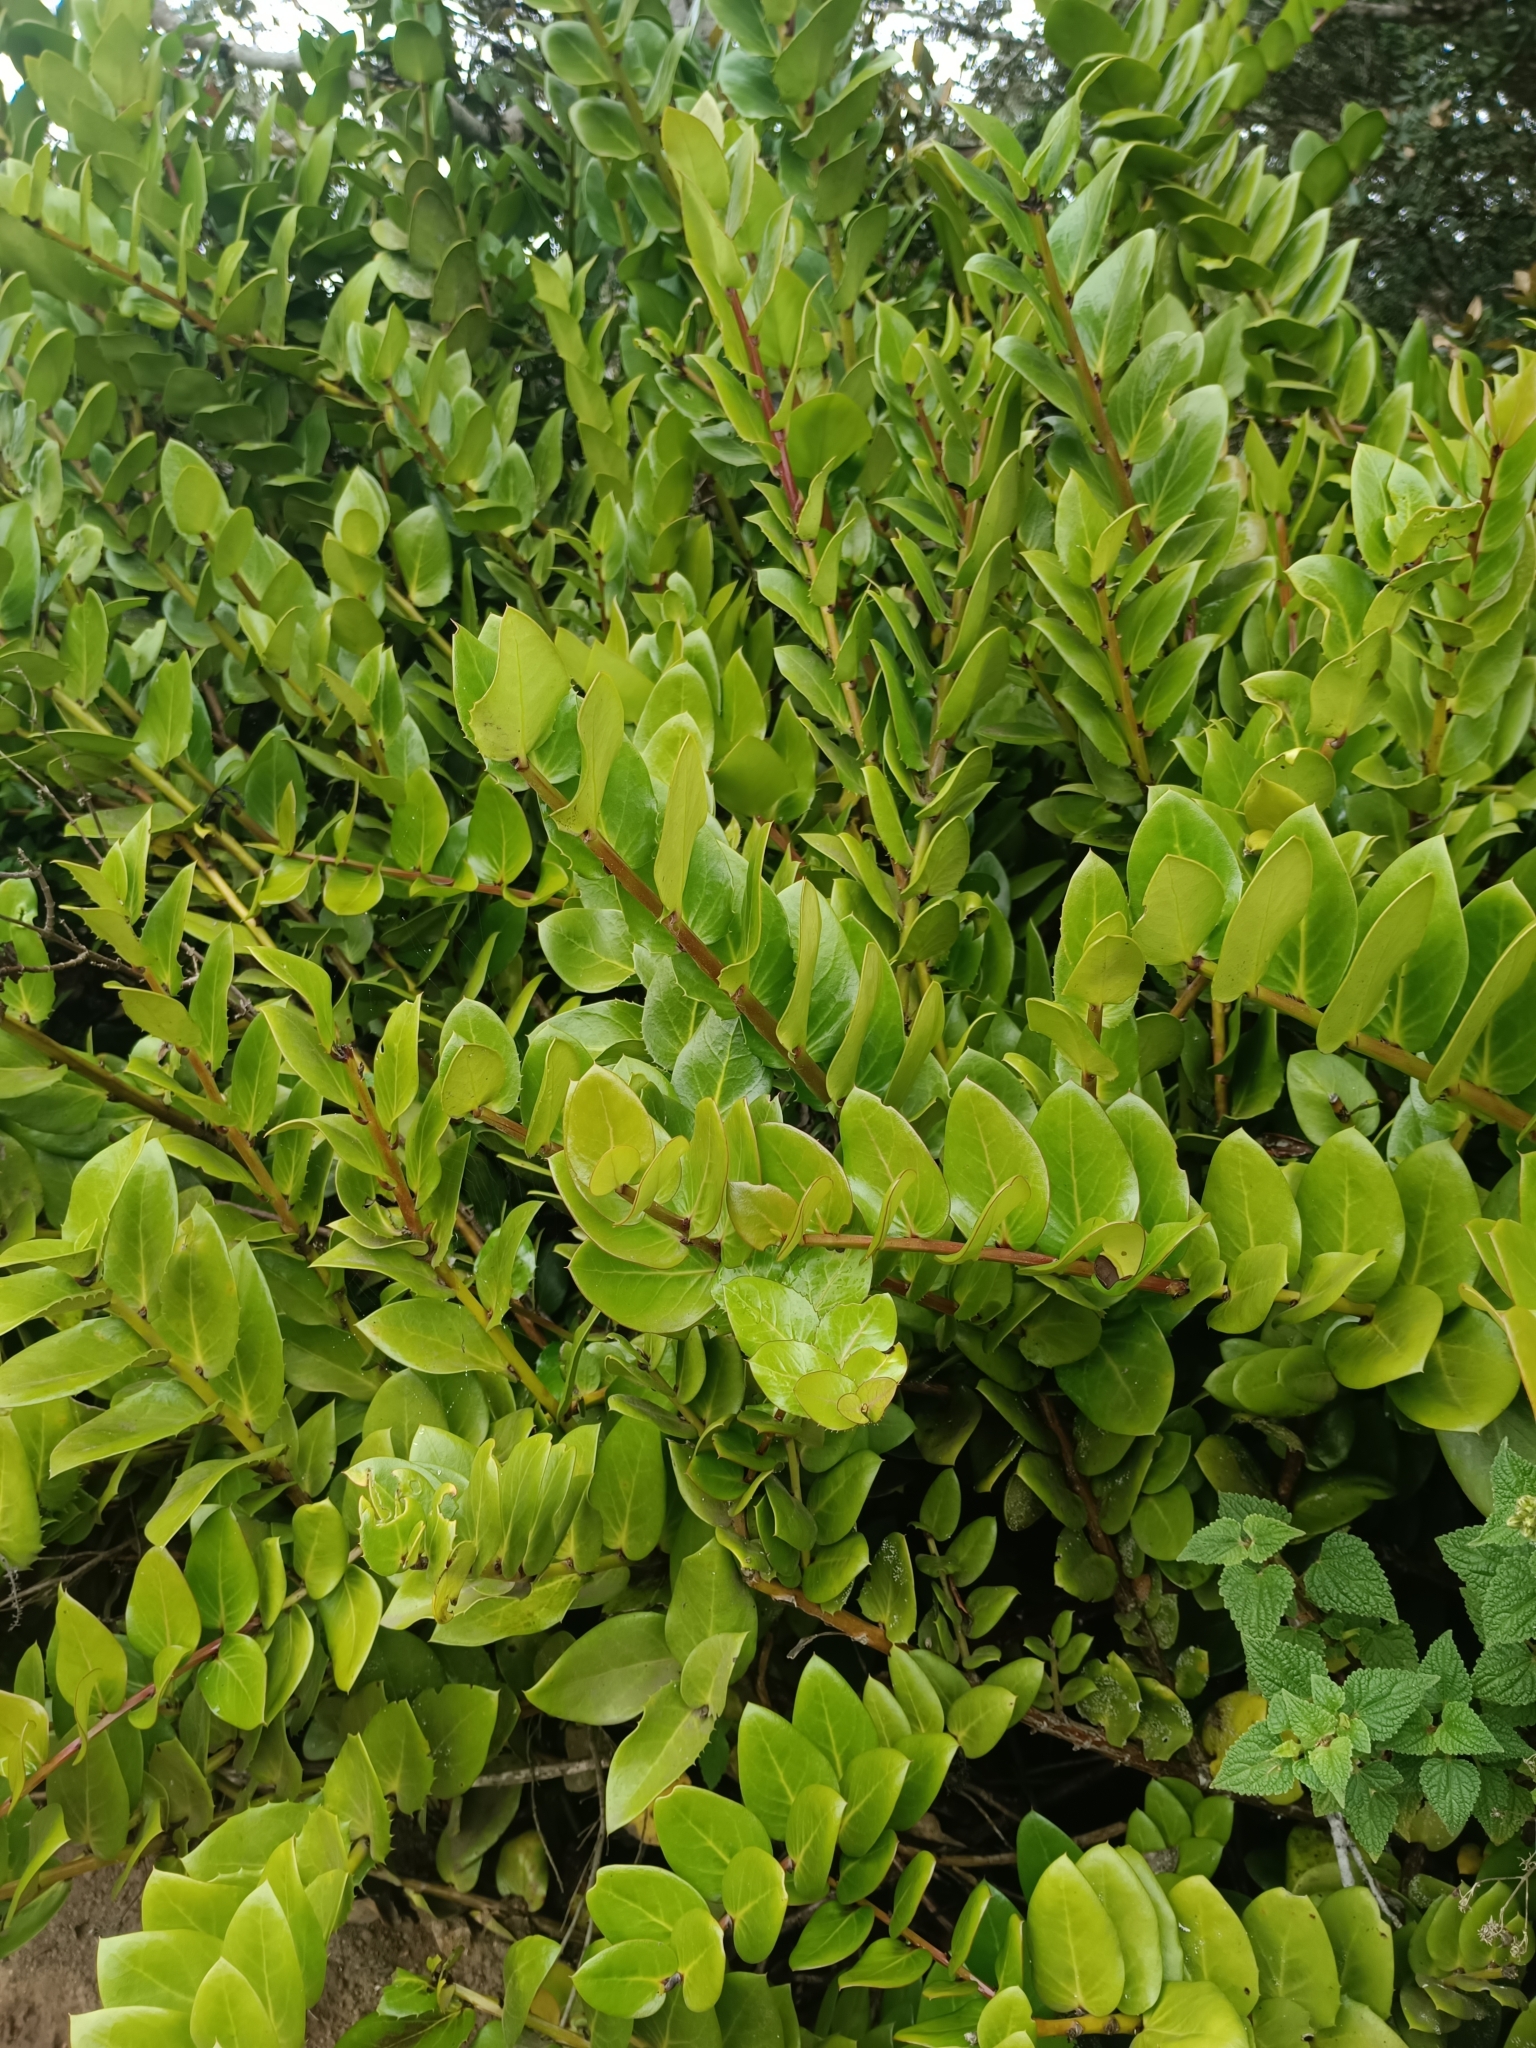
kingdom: Plantae
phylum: Tracheophyta
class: Magnoliopsida
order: Apiales
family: Griseliniaceae
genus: Griselinia
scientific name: Griselinia scandens
